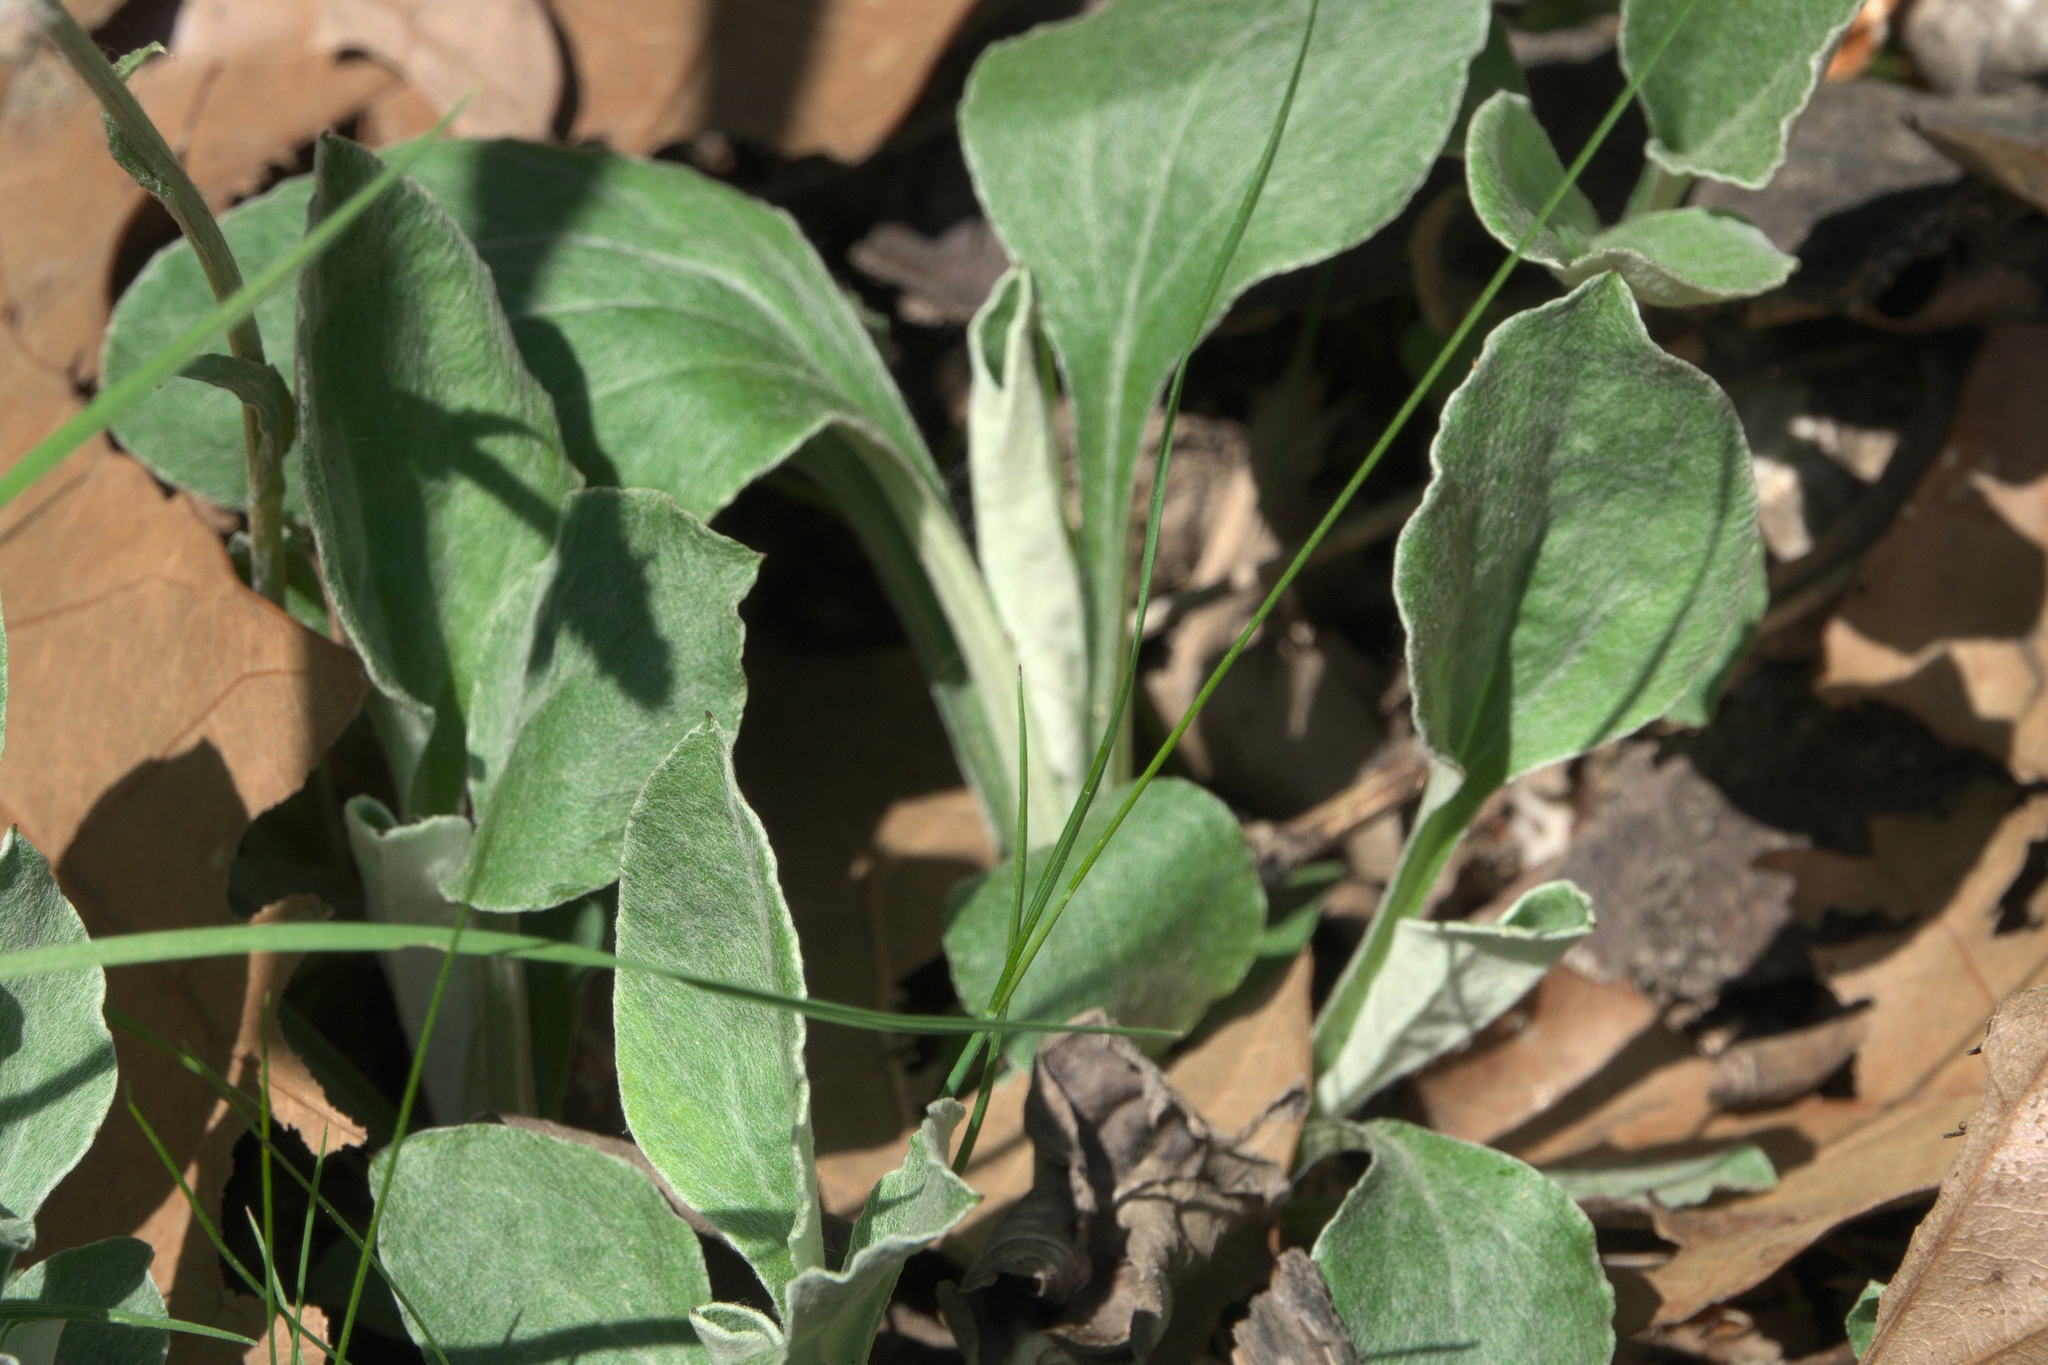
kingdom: Plantae
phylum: Tracheophyta
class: Magnoliopsida
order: Asterales
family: Asteraceae
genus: Antennaria
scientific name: Antennaria parlinii
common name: Parlin's pussytoes
